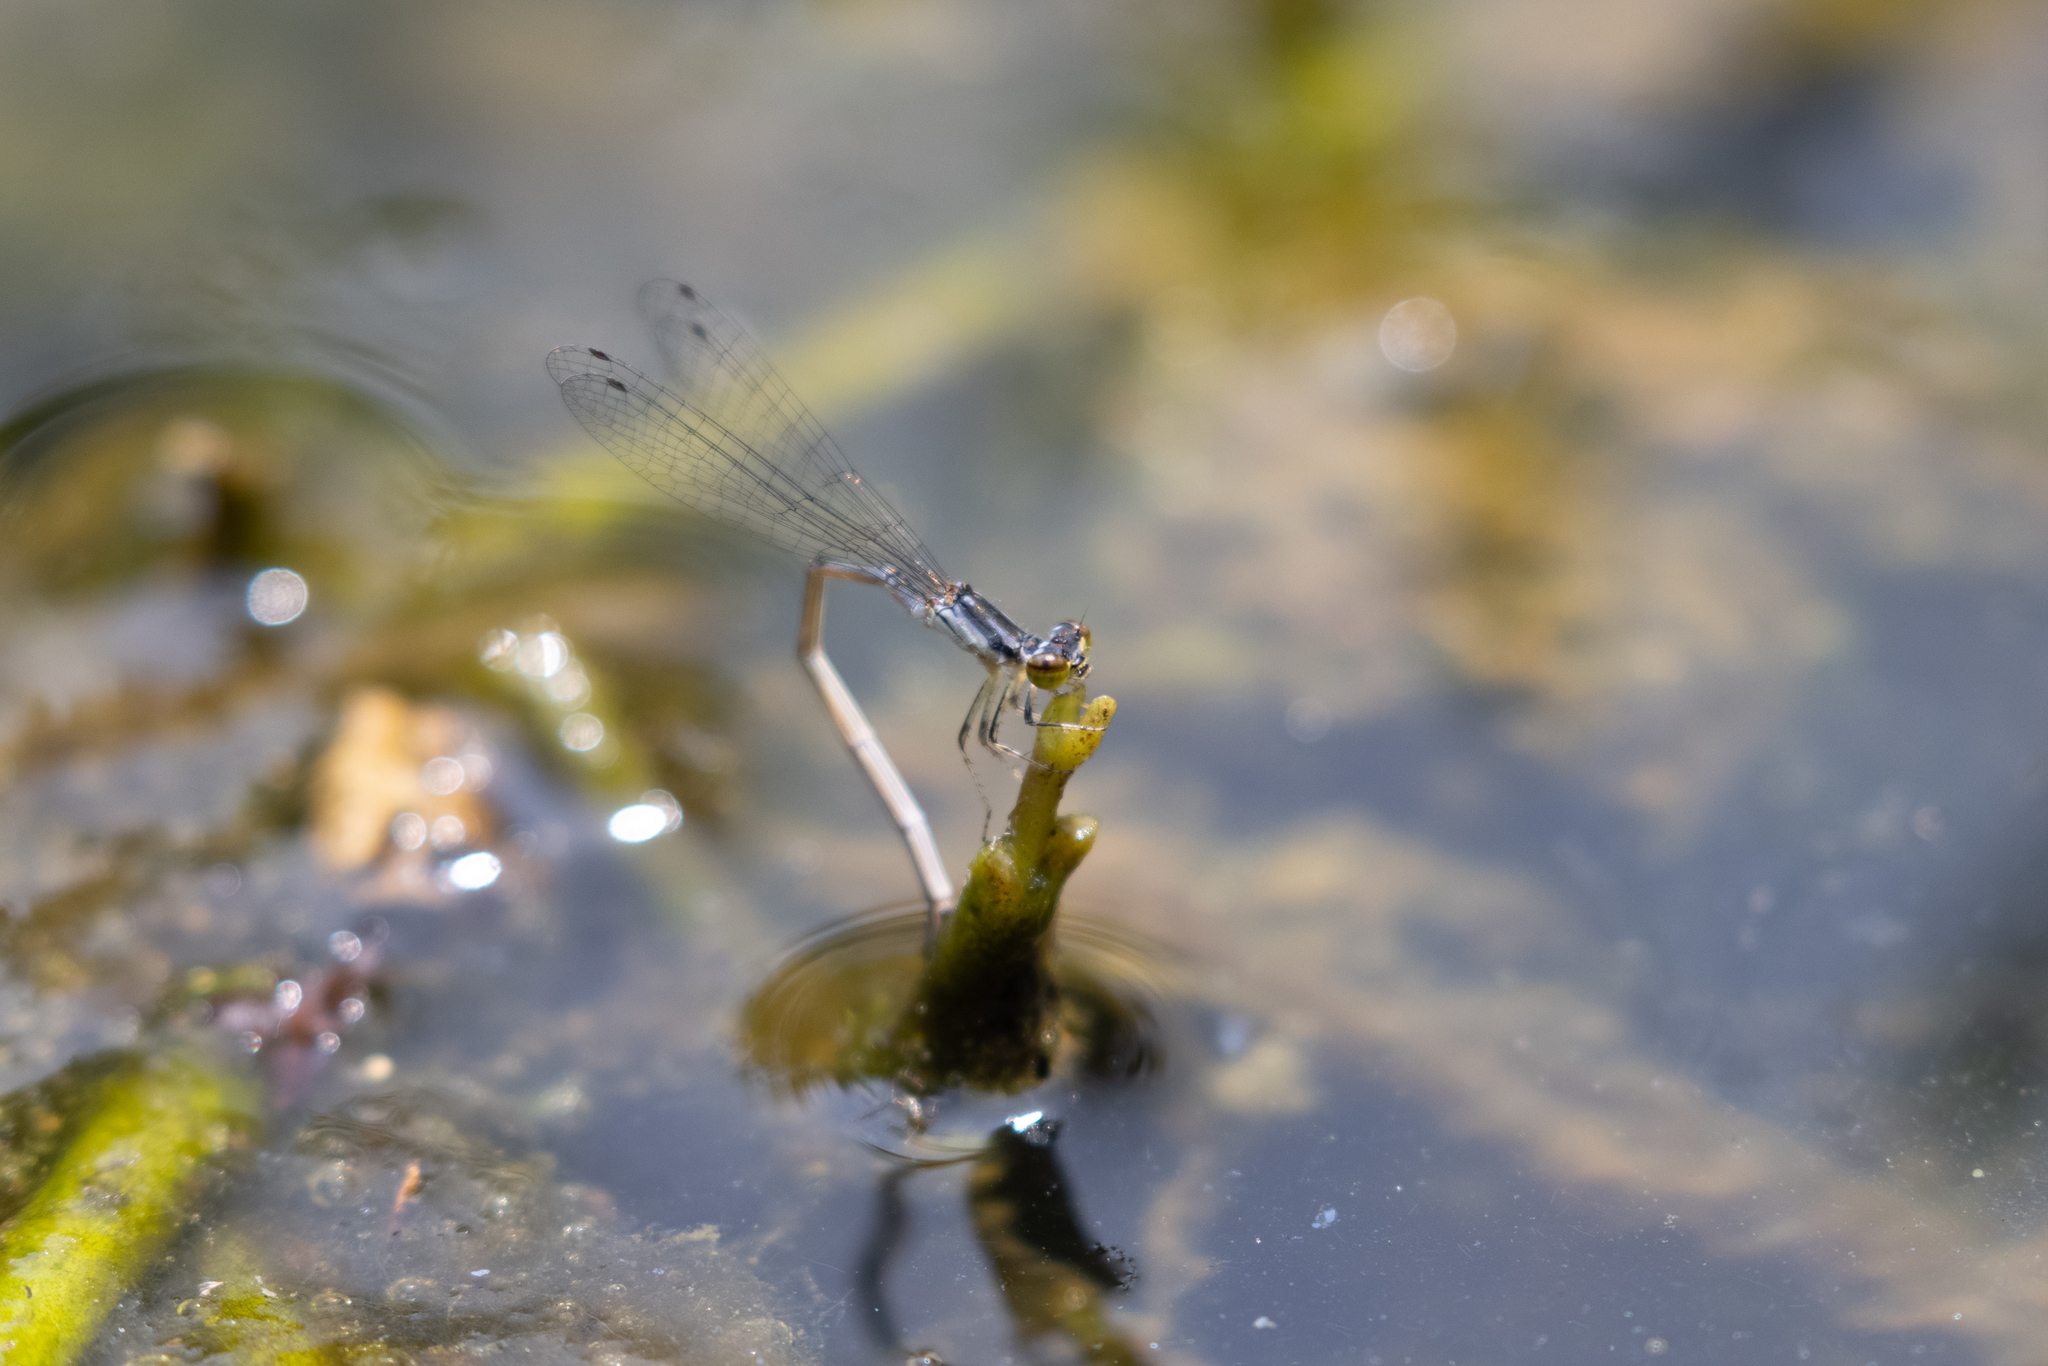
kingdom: Animalia
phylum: Arthropoda
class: Insecta
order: Odonata
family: Coenagrionidae
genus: Ischnura
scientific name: Ischnura posita
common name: Fragile forktail
